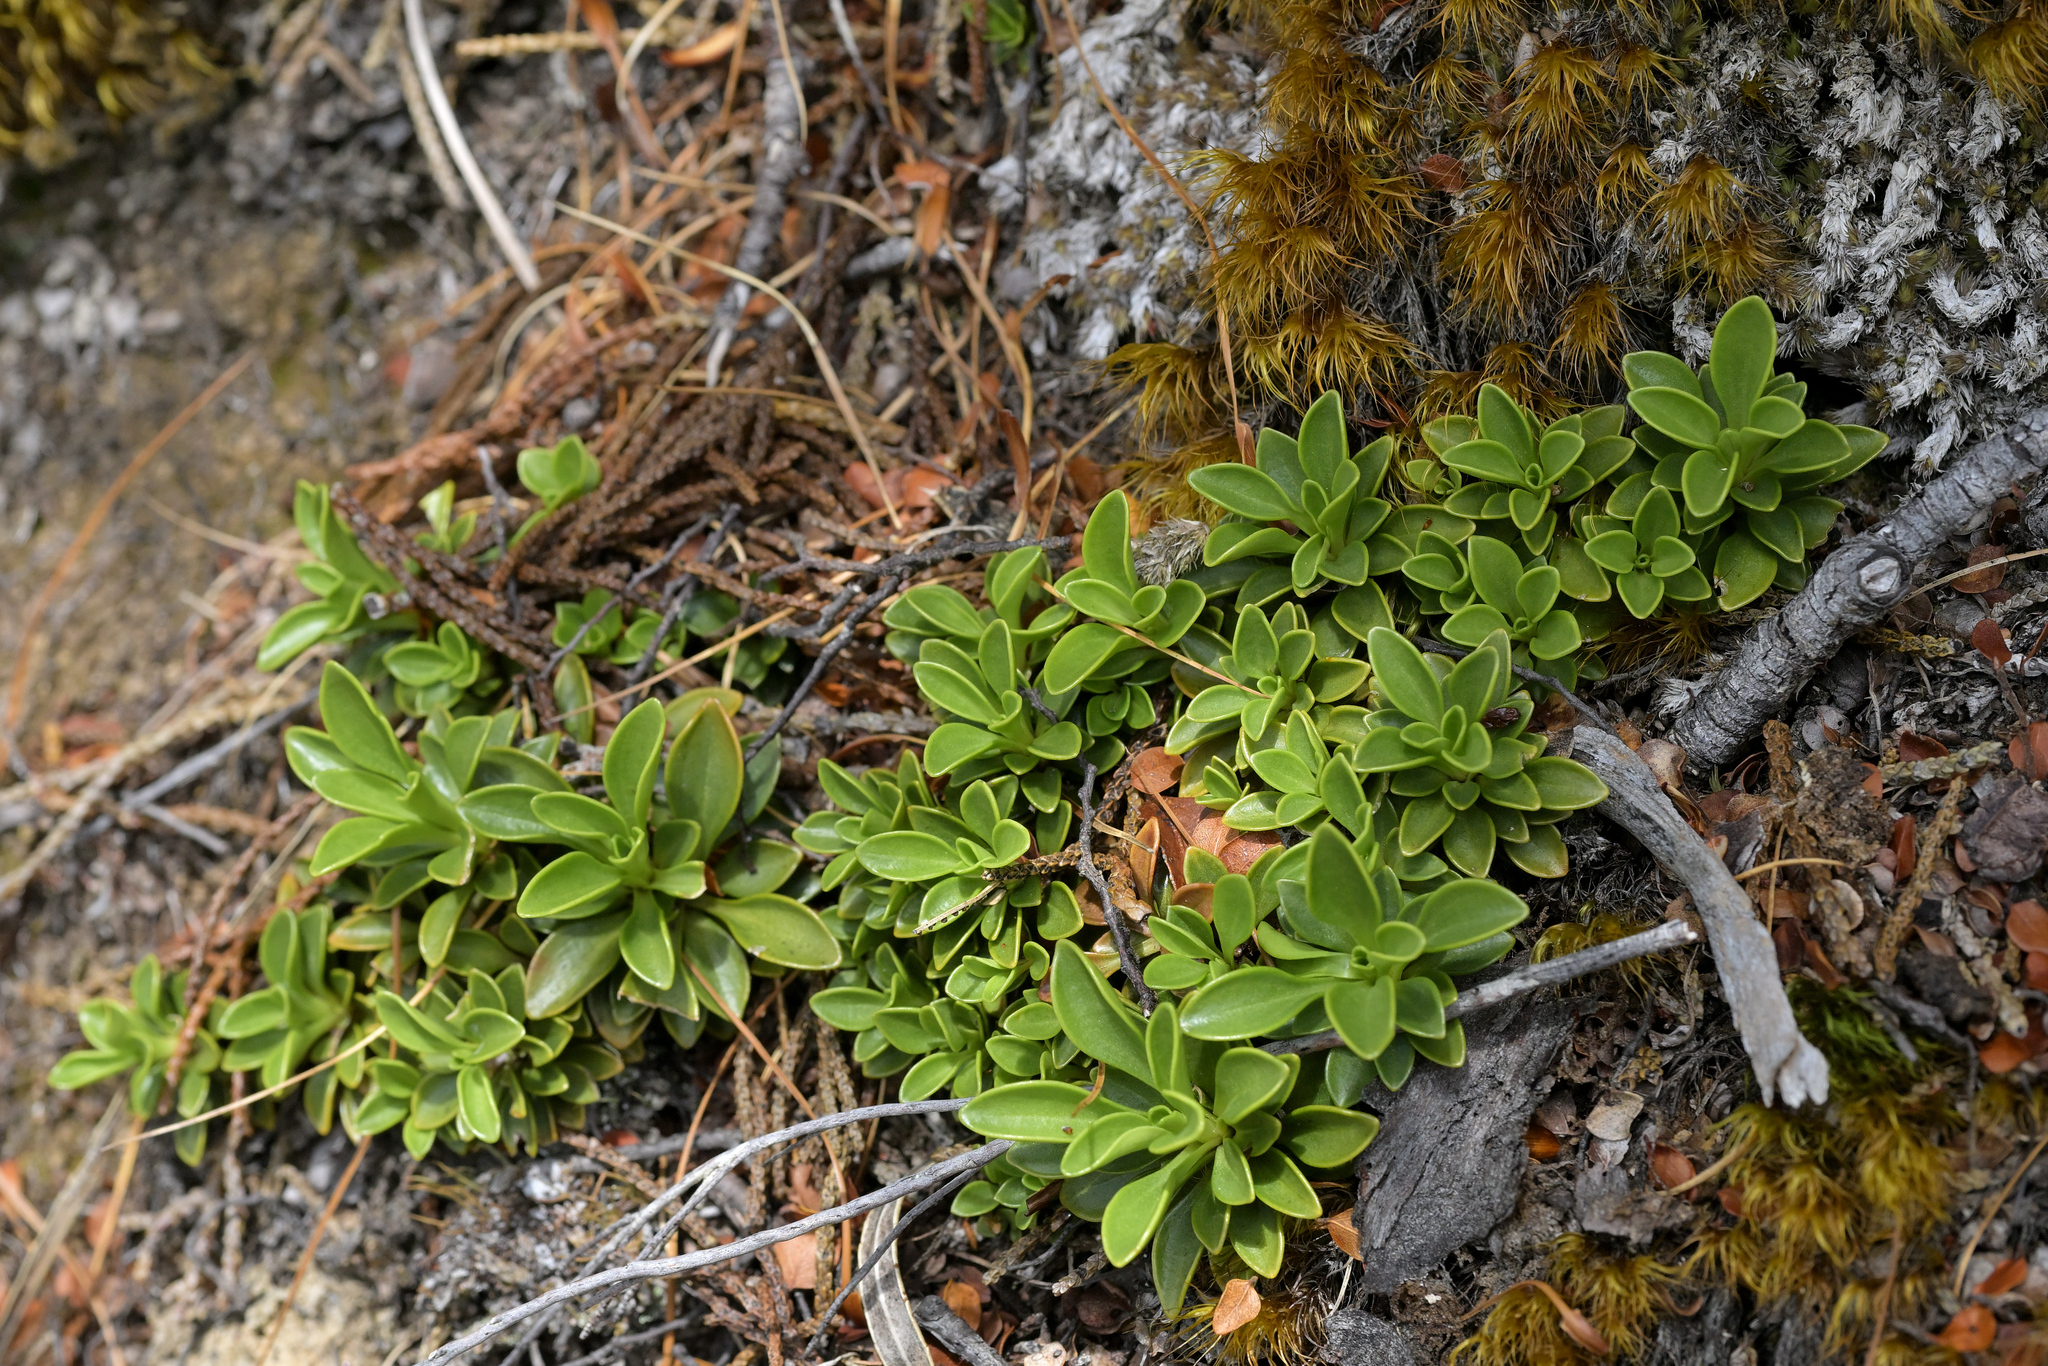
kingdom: Plantae
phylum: Tracheophyta
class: Magnoliopsida
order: Gentianales
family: Gentianaceae
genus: Gentianella
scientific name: Gentianella impressinervia
